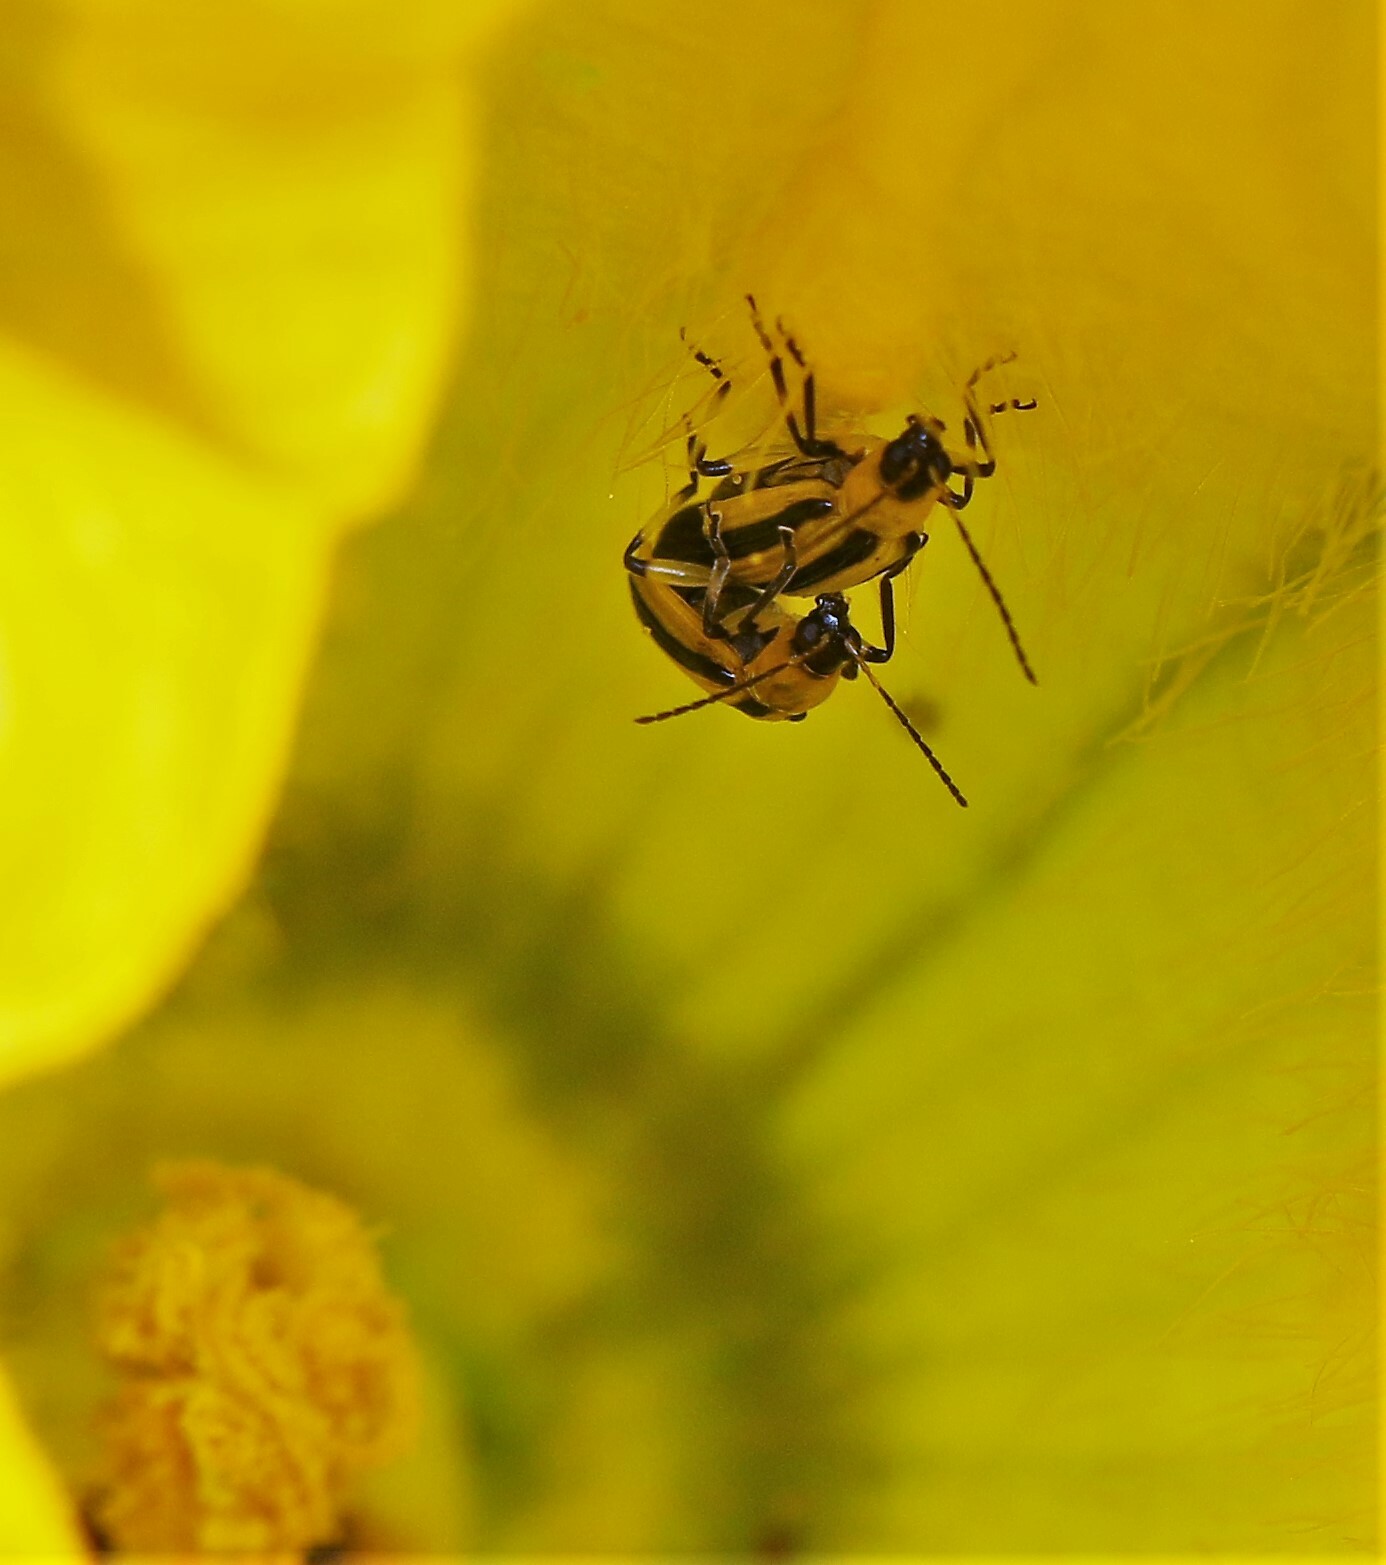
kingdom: Animalia
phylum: Arthropoda
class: Insecta
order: Coleoptera
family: Chrysomelidae
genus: Acalymma
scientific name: Acalymma vittatum
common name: Striped cucumber beetle
